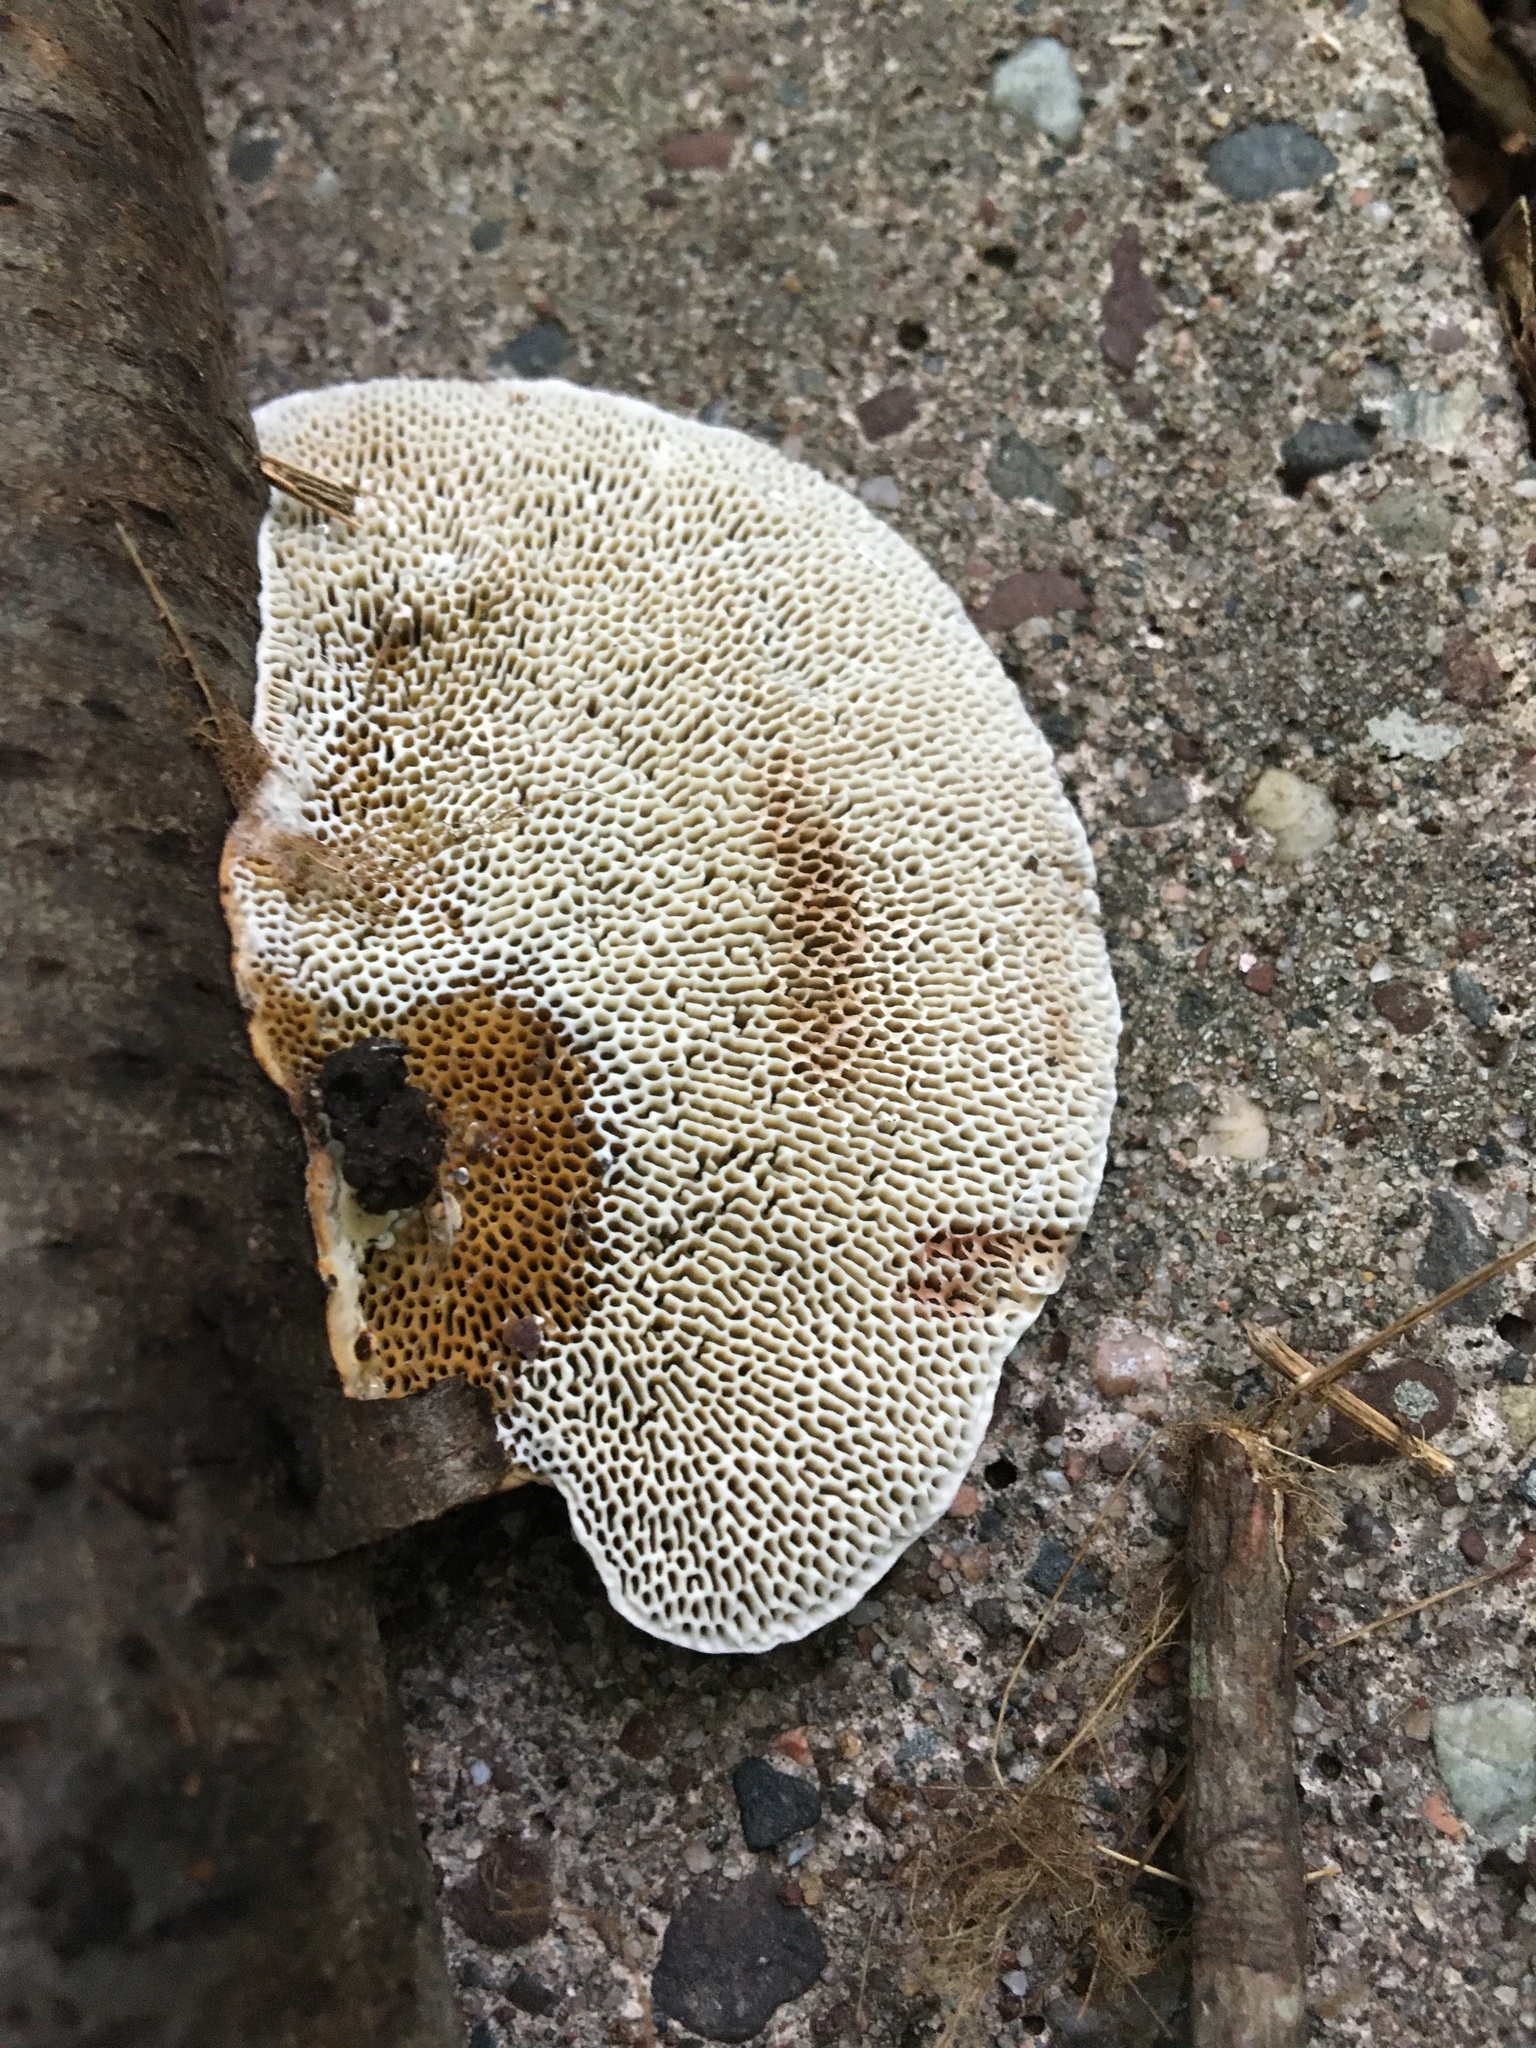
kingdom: Fungi
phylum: Basidiomycota
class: Agaricomycetes
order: Polyporales
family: Polyporaceae
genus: Daedaleopsis
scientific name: Daedaleopsis confragosa
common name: Blushing bracket
